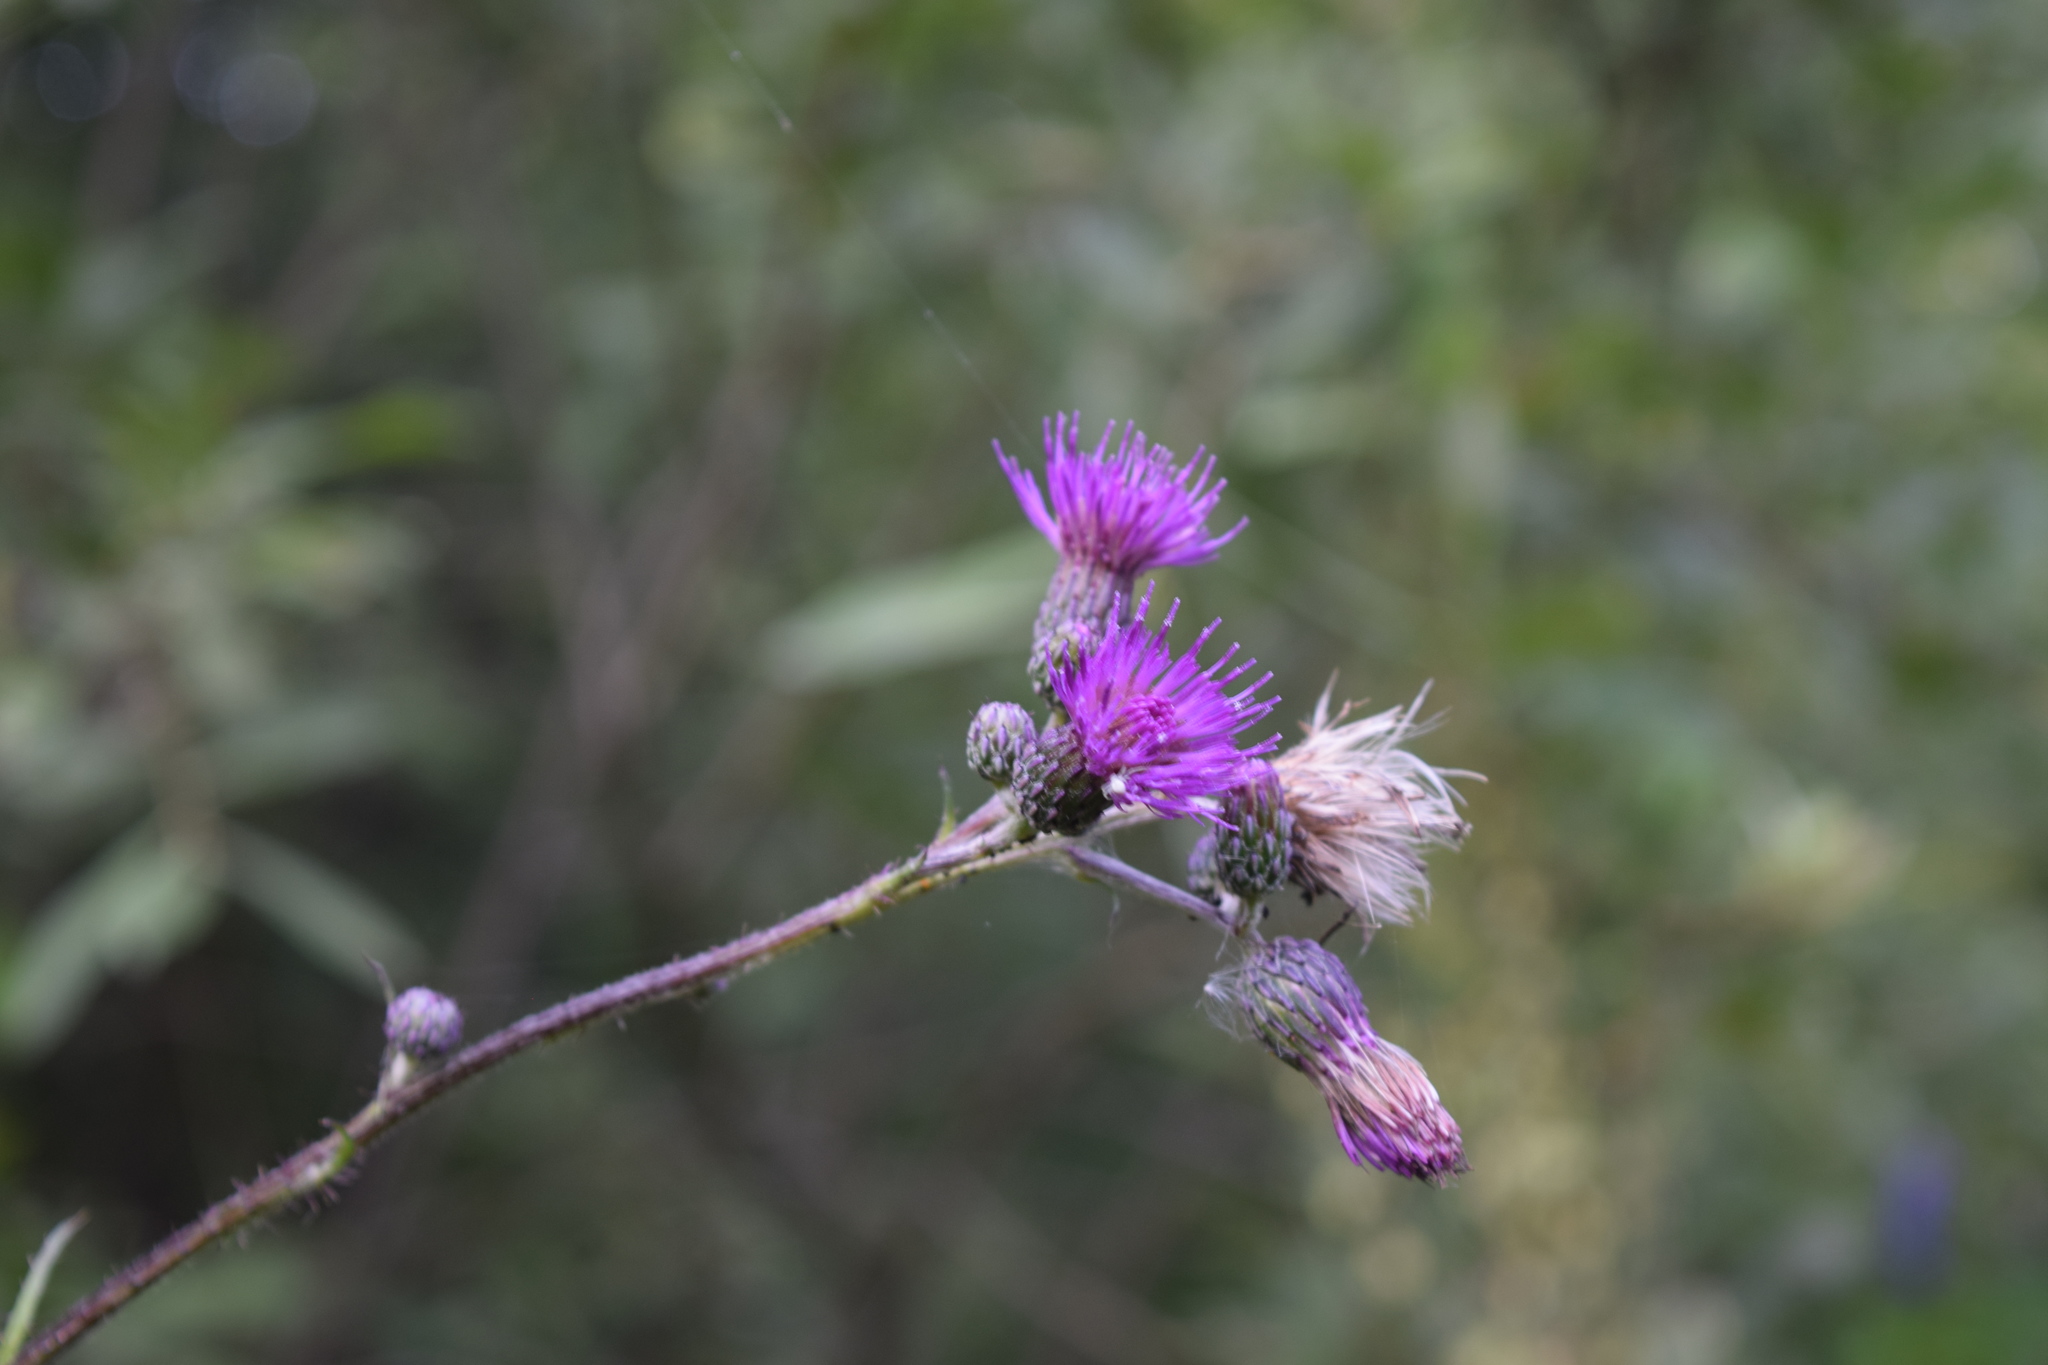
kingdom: Plantae
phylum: Tracheophyta
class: Magnoliopsida
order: Asterales
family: Asteraceae
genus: Cirsium
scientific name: Cirsium palustre
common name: Marsh thistle
